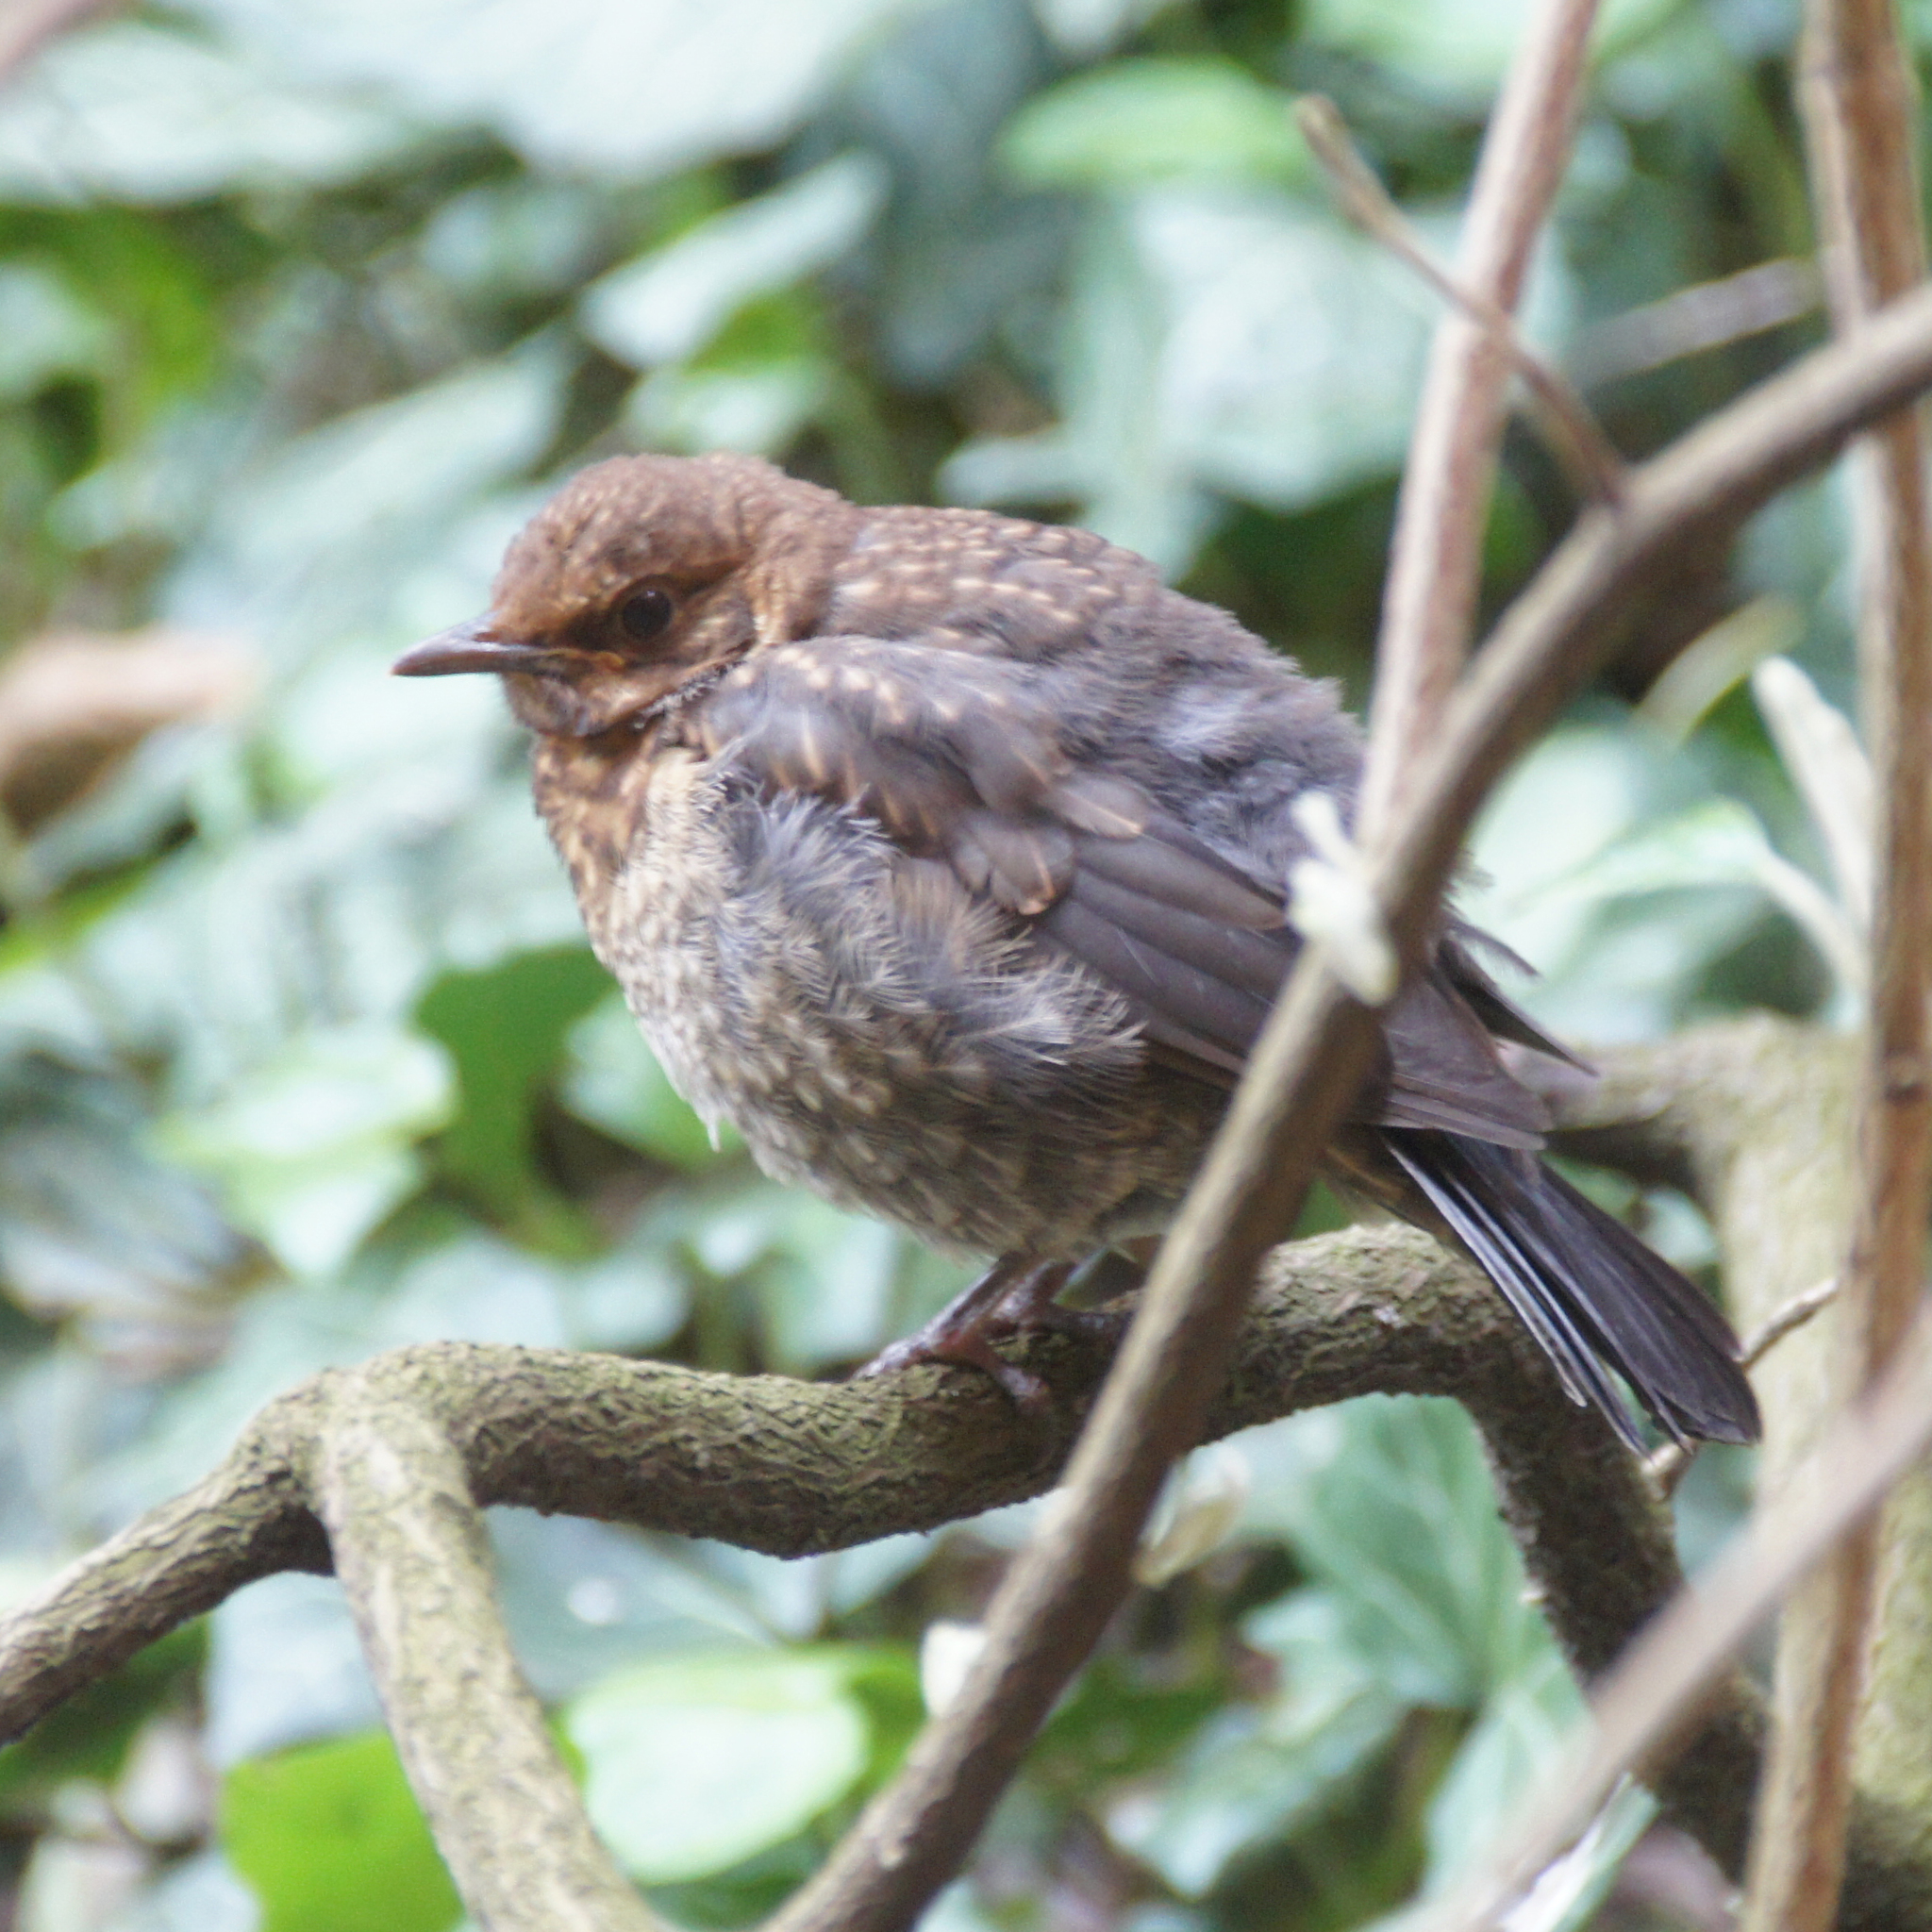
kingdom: Animalia
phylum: Chordata
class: Aves
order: Passeriformes
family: Turdidae
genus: Turdus
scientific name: Turdus merula
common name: Common blackbird
